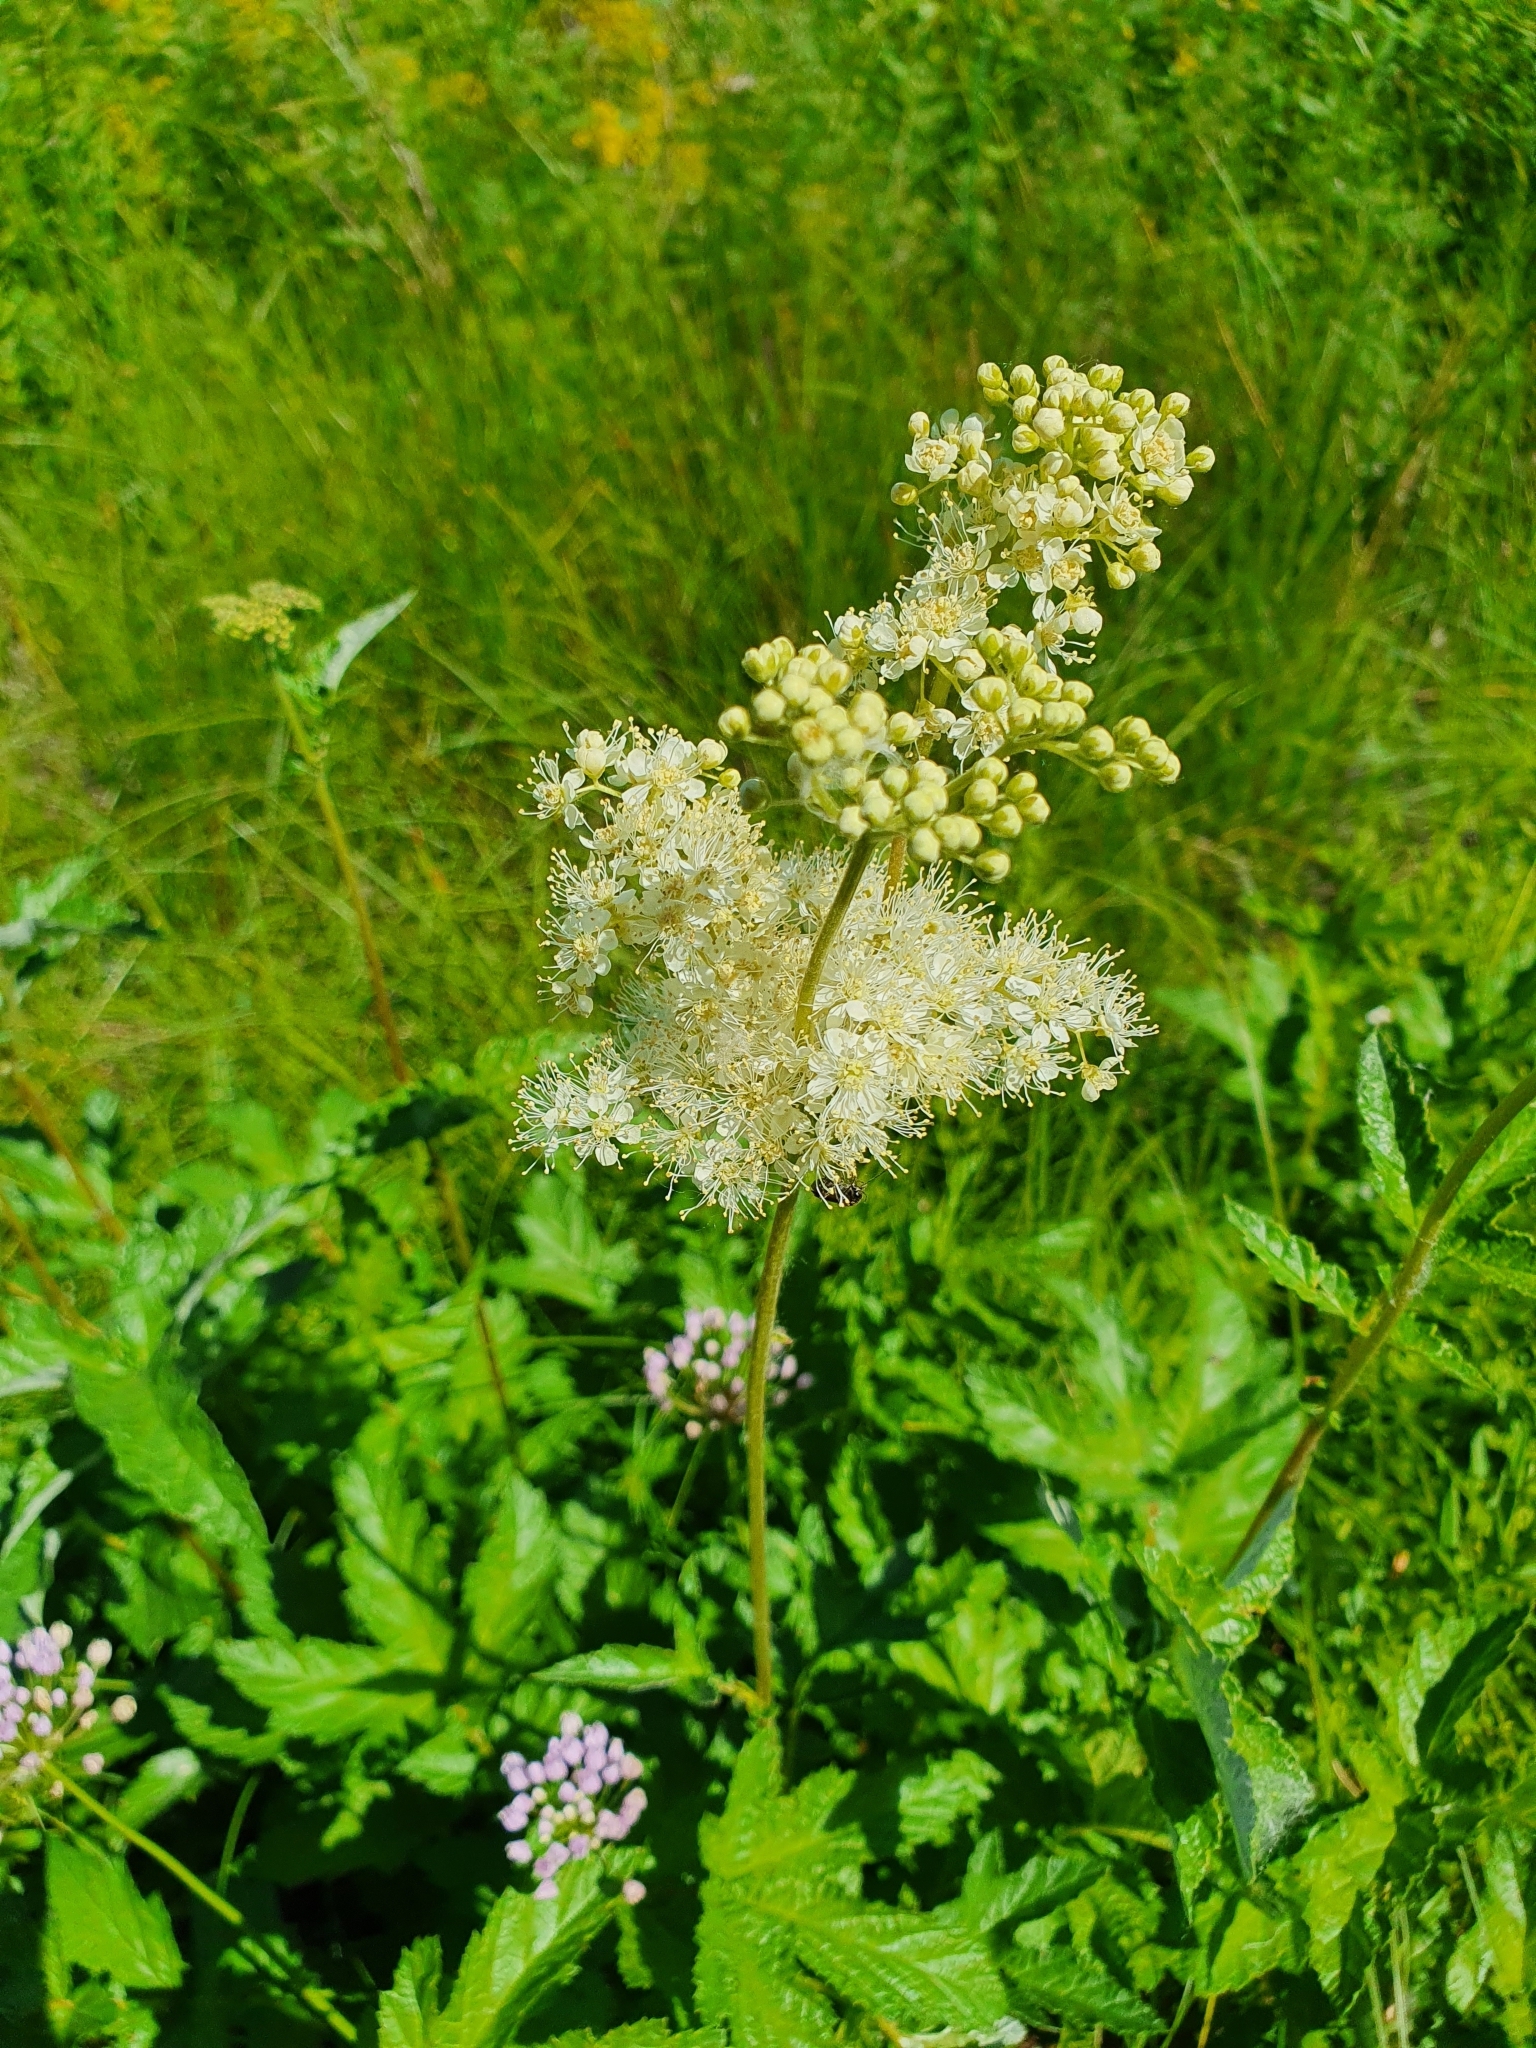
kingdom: Plantae
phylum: Tracheophyta
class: Magnoliopsida
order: Rosales
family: Rosaceae
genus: Filipendula
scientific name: Filipendula ulmaria
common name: Meadowsweet
